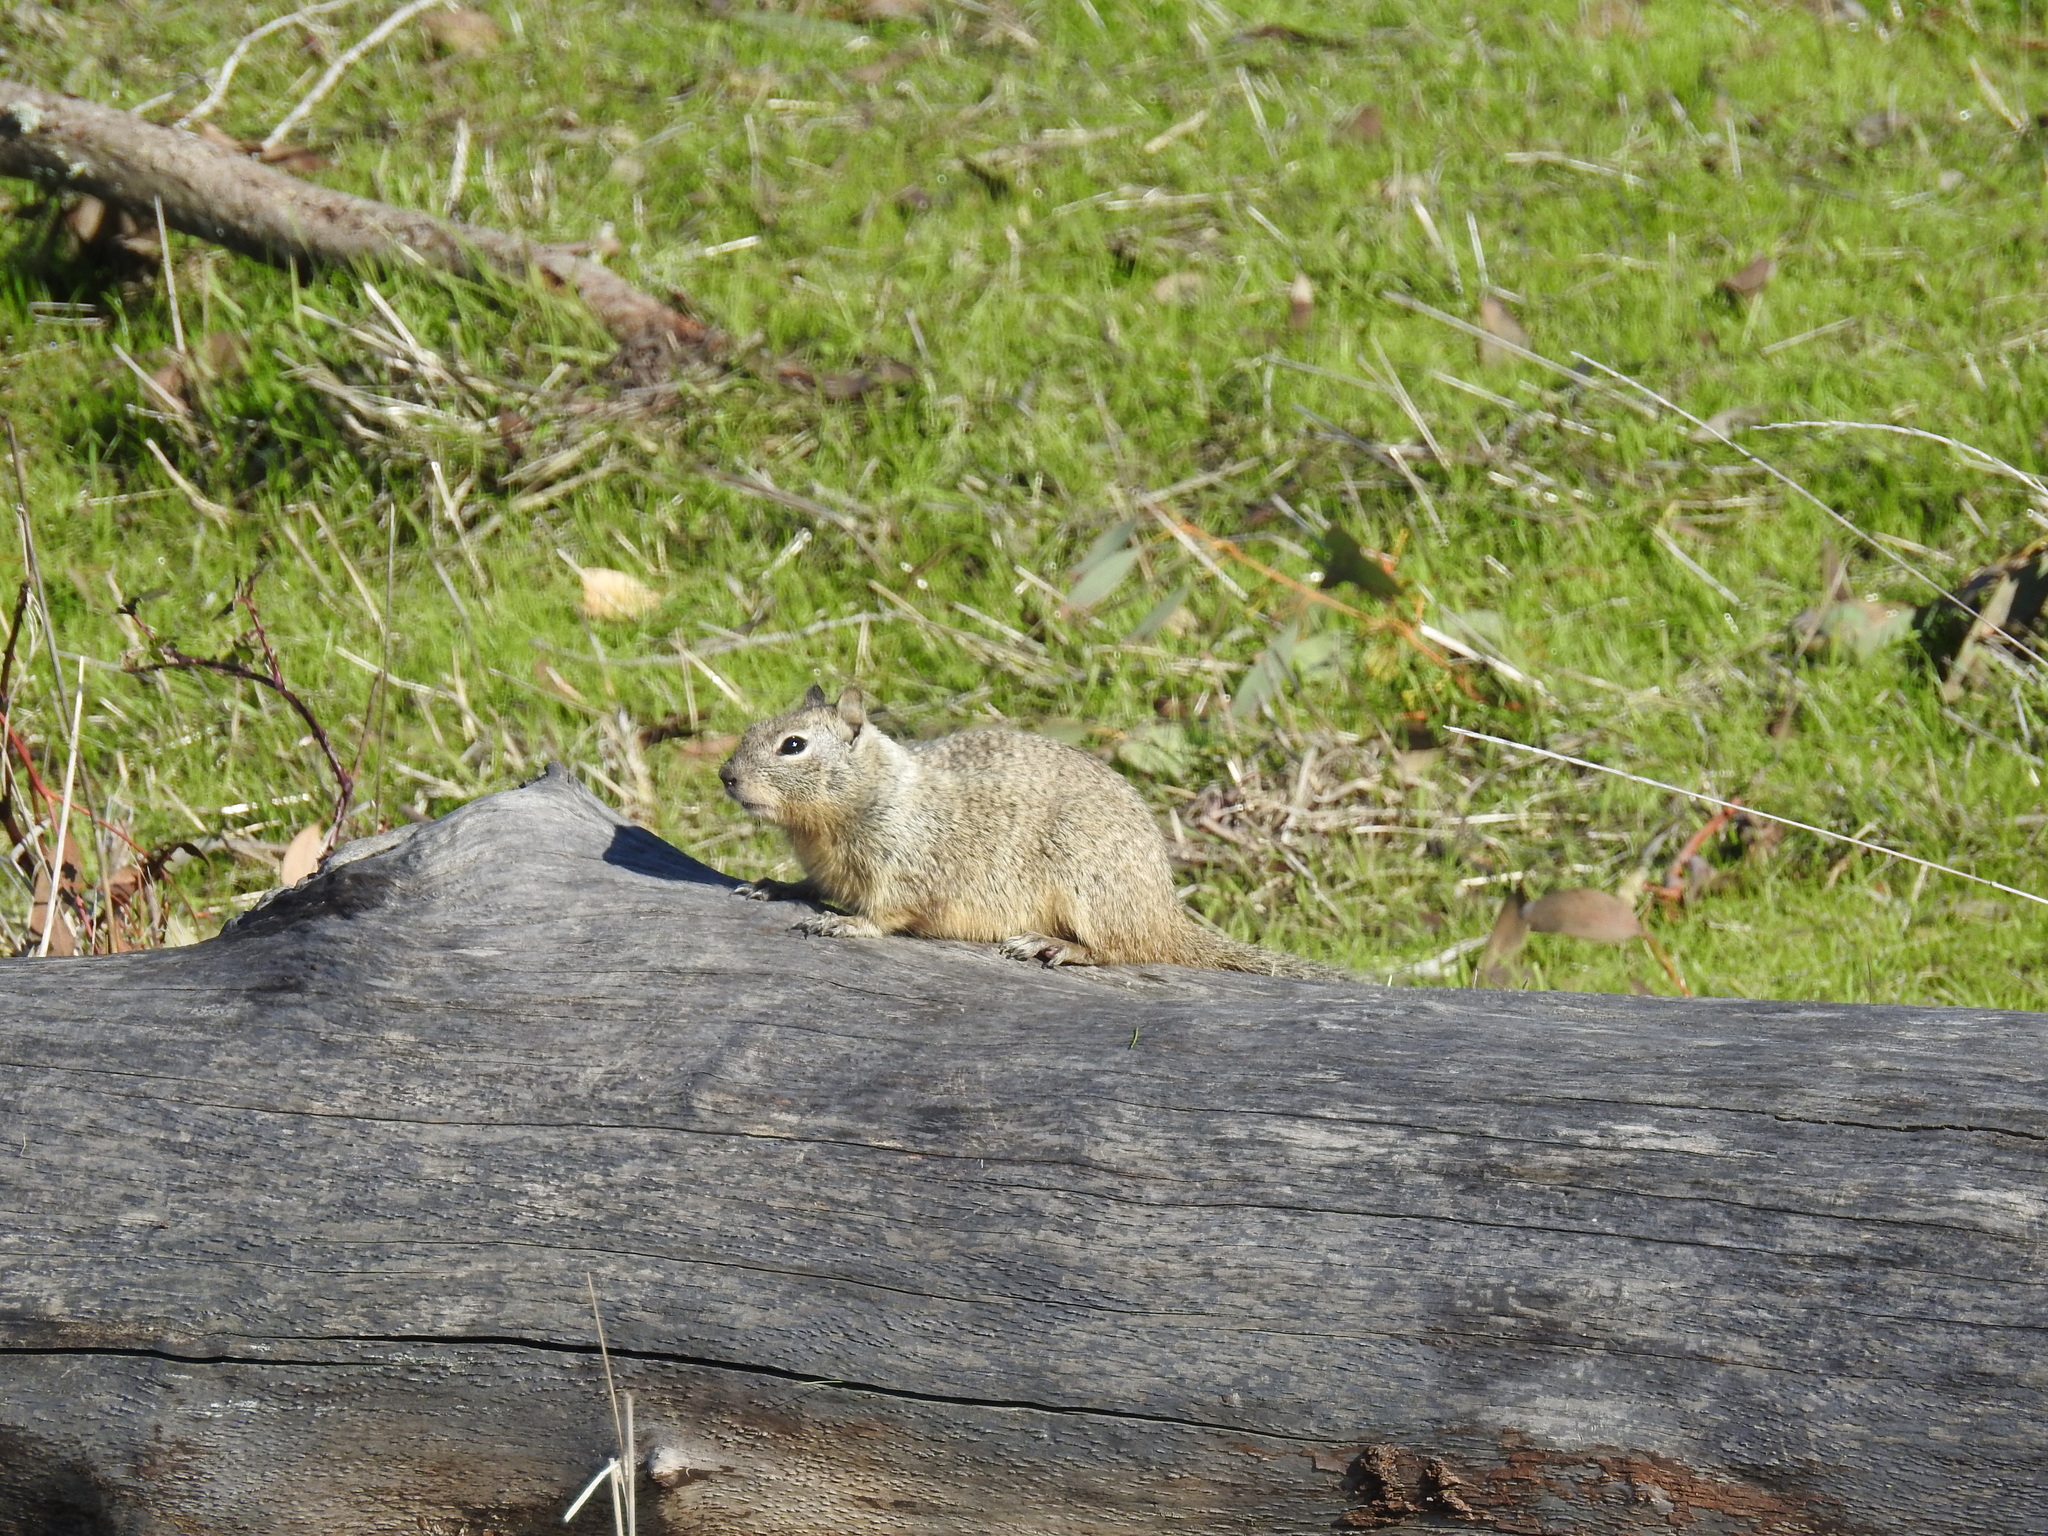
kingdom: Animalia
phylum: Chordata
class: Mammalia
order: Rodentia
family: Sciuridae
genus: Otospermophilus
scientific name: Otospermophilus beecheyi
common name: California ground squirrel
